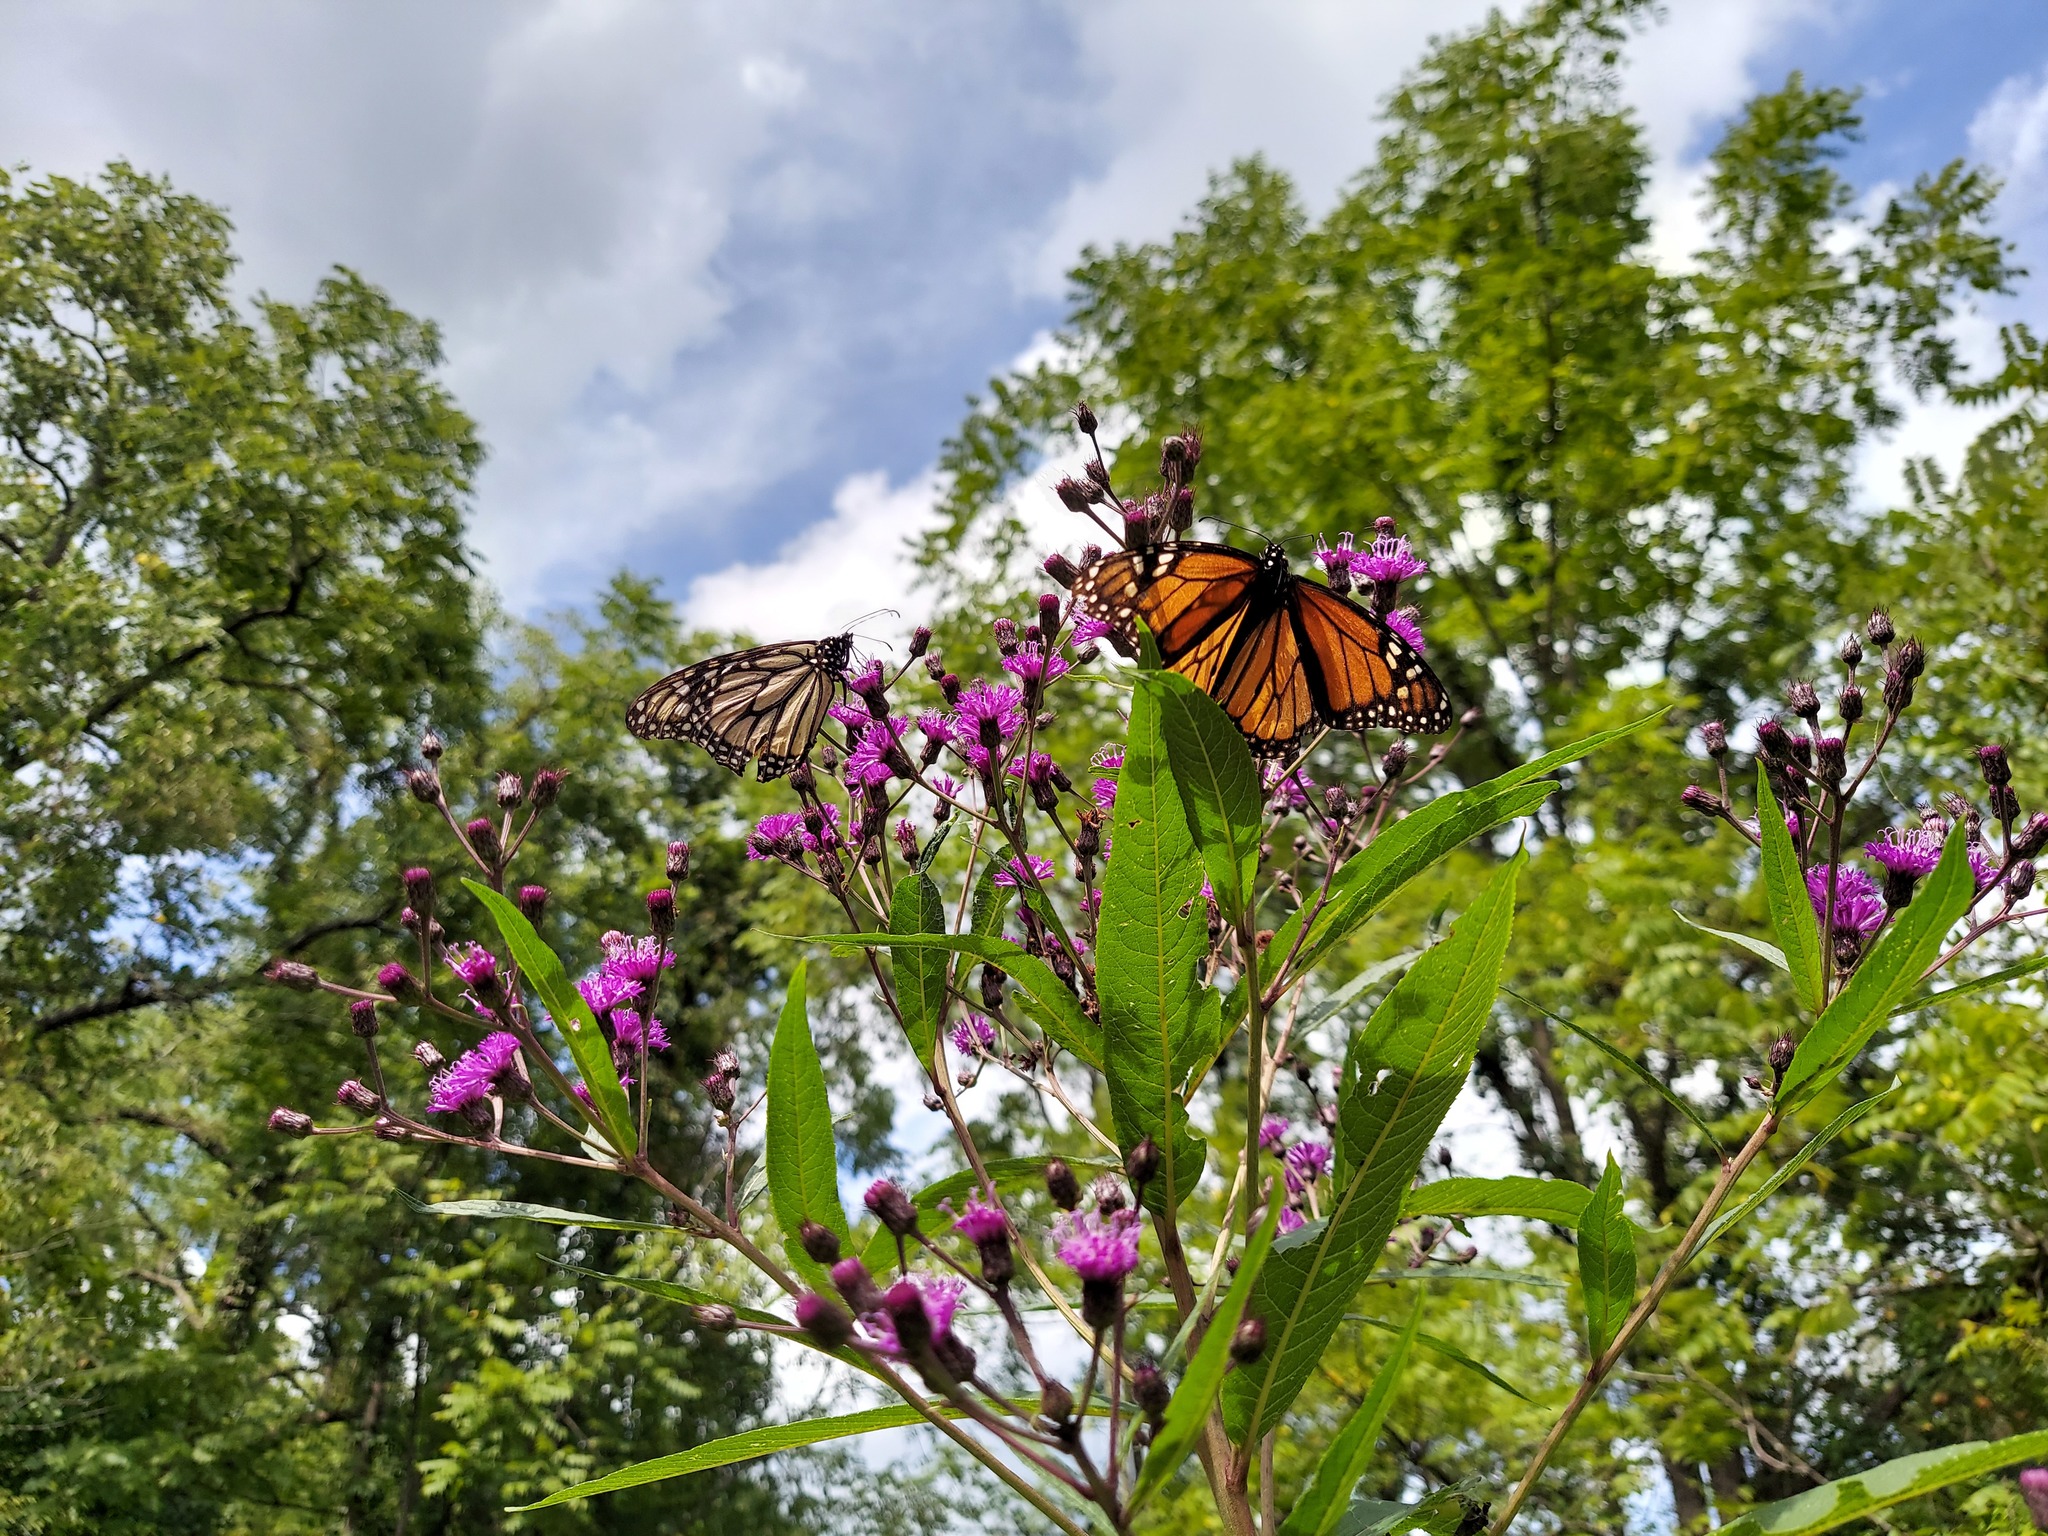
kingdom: Animalia
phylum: Arthropoda
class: Insecta
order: Lepidoptera
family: Nymphalidae
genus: Danaus
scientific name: Danaus plexippus
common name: Monarch
